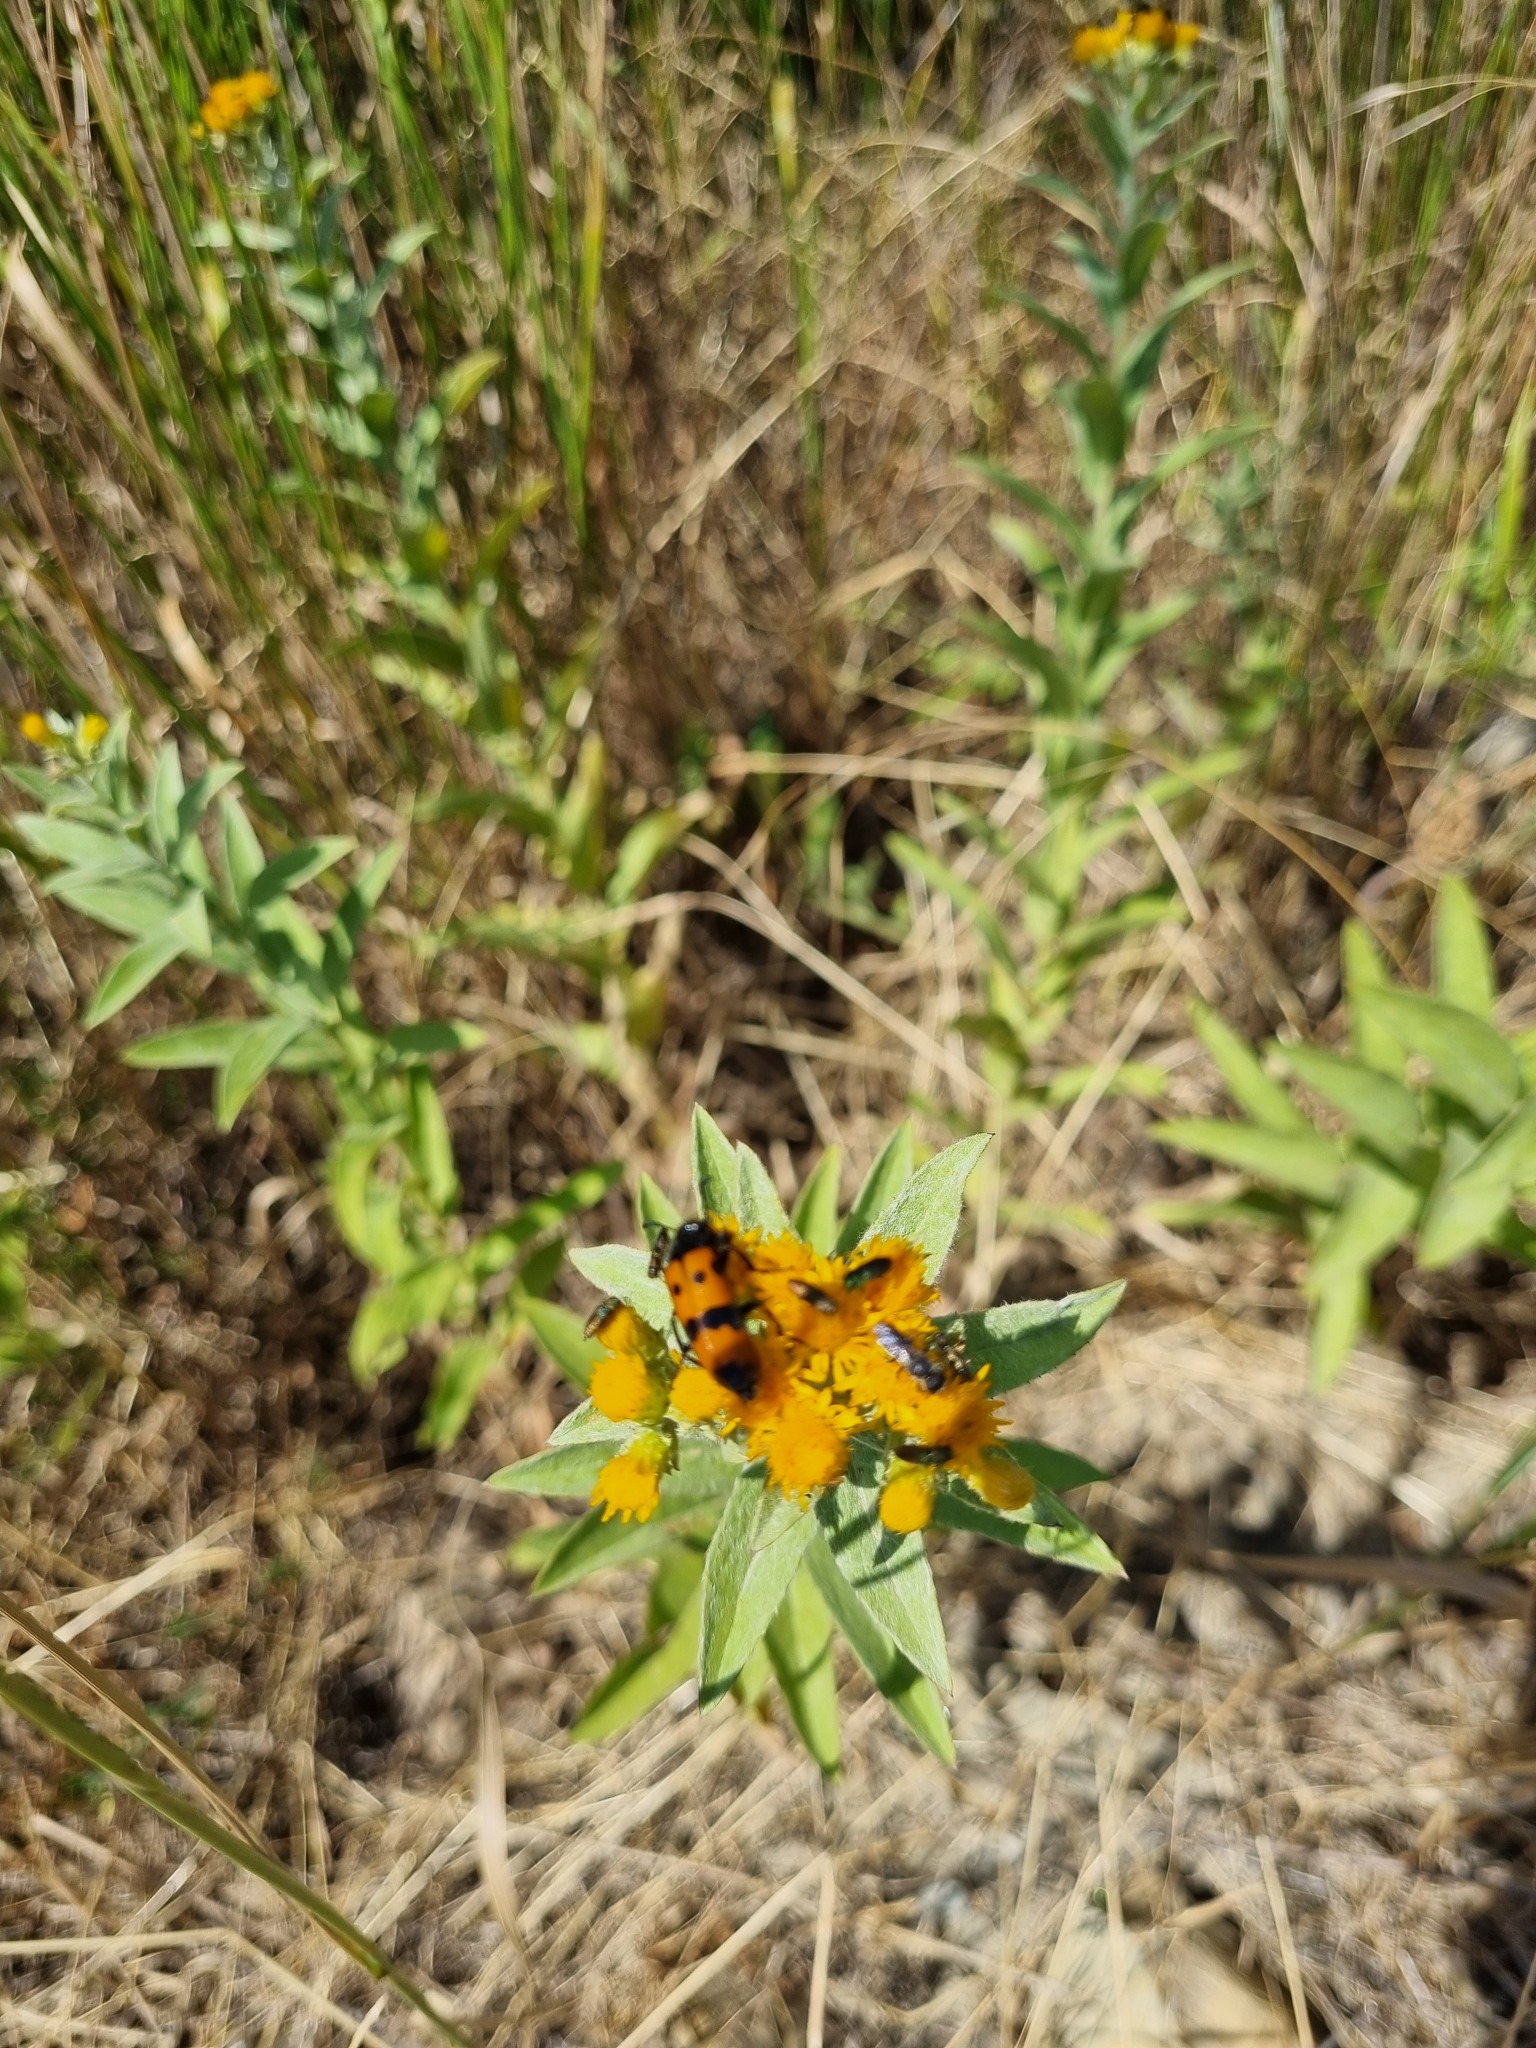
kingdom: Plantae
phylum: Tracheophyta
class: Magnoliopsida
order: Asterales
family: Asteraceae
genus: Pentanema
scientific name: Pentanema germanicum
